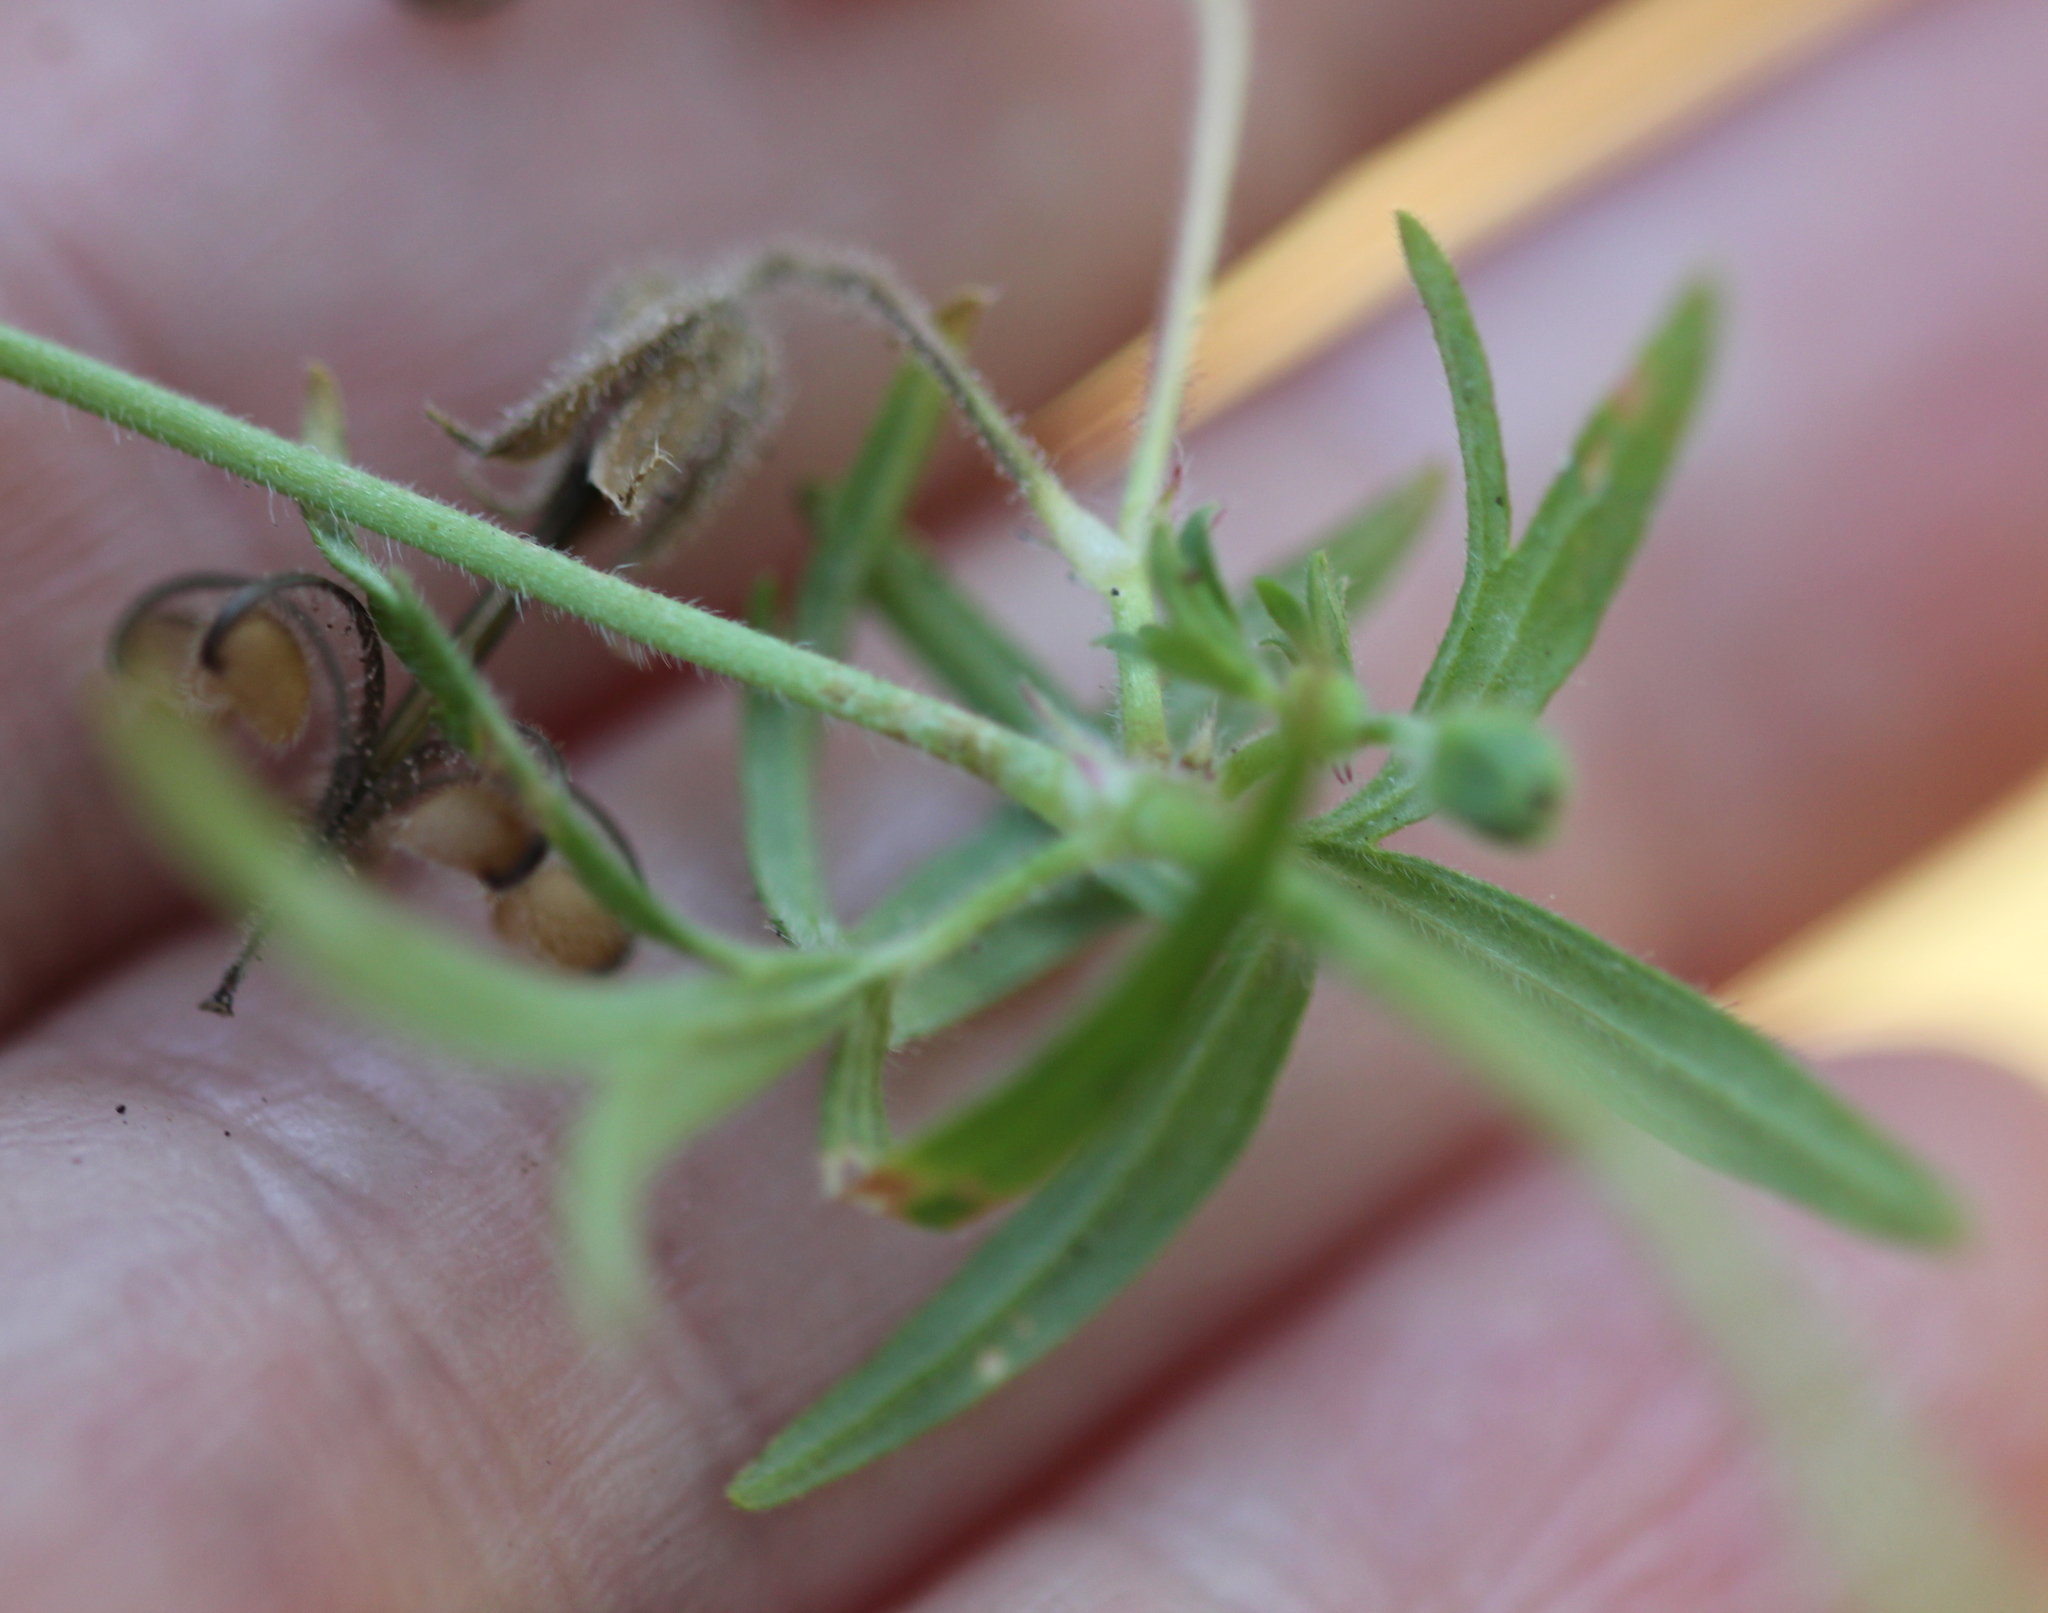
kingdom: Plantae
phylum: Tracheophyta
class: Magnoliopsida
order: Geraniales
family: Geraniaceae
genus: Geranium
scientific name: Geranium dissectum
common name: Cut-leaved crane's-bill
